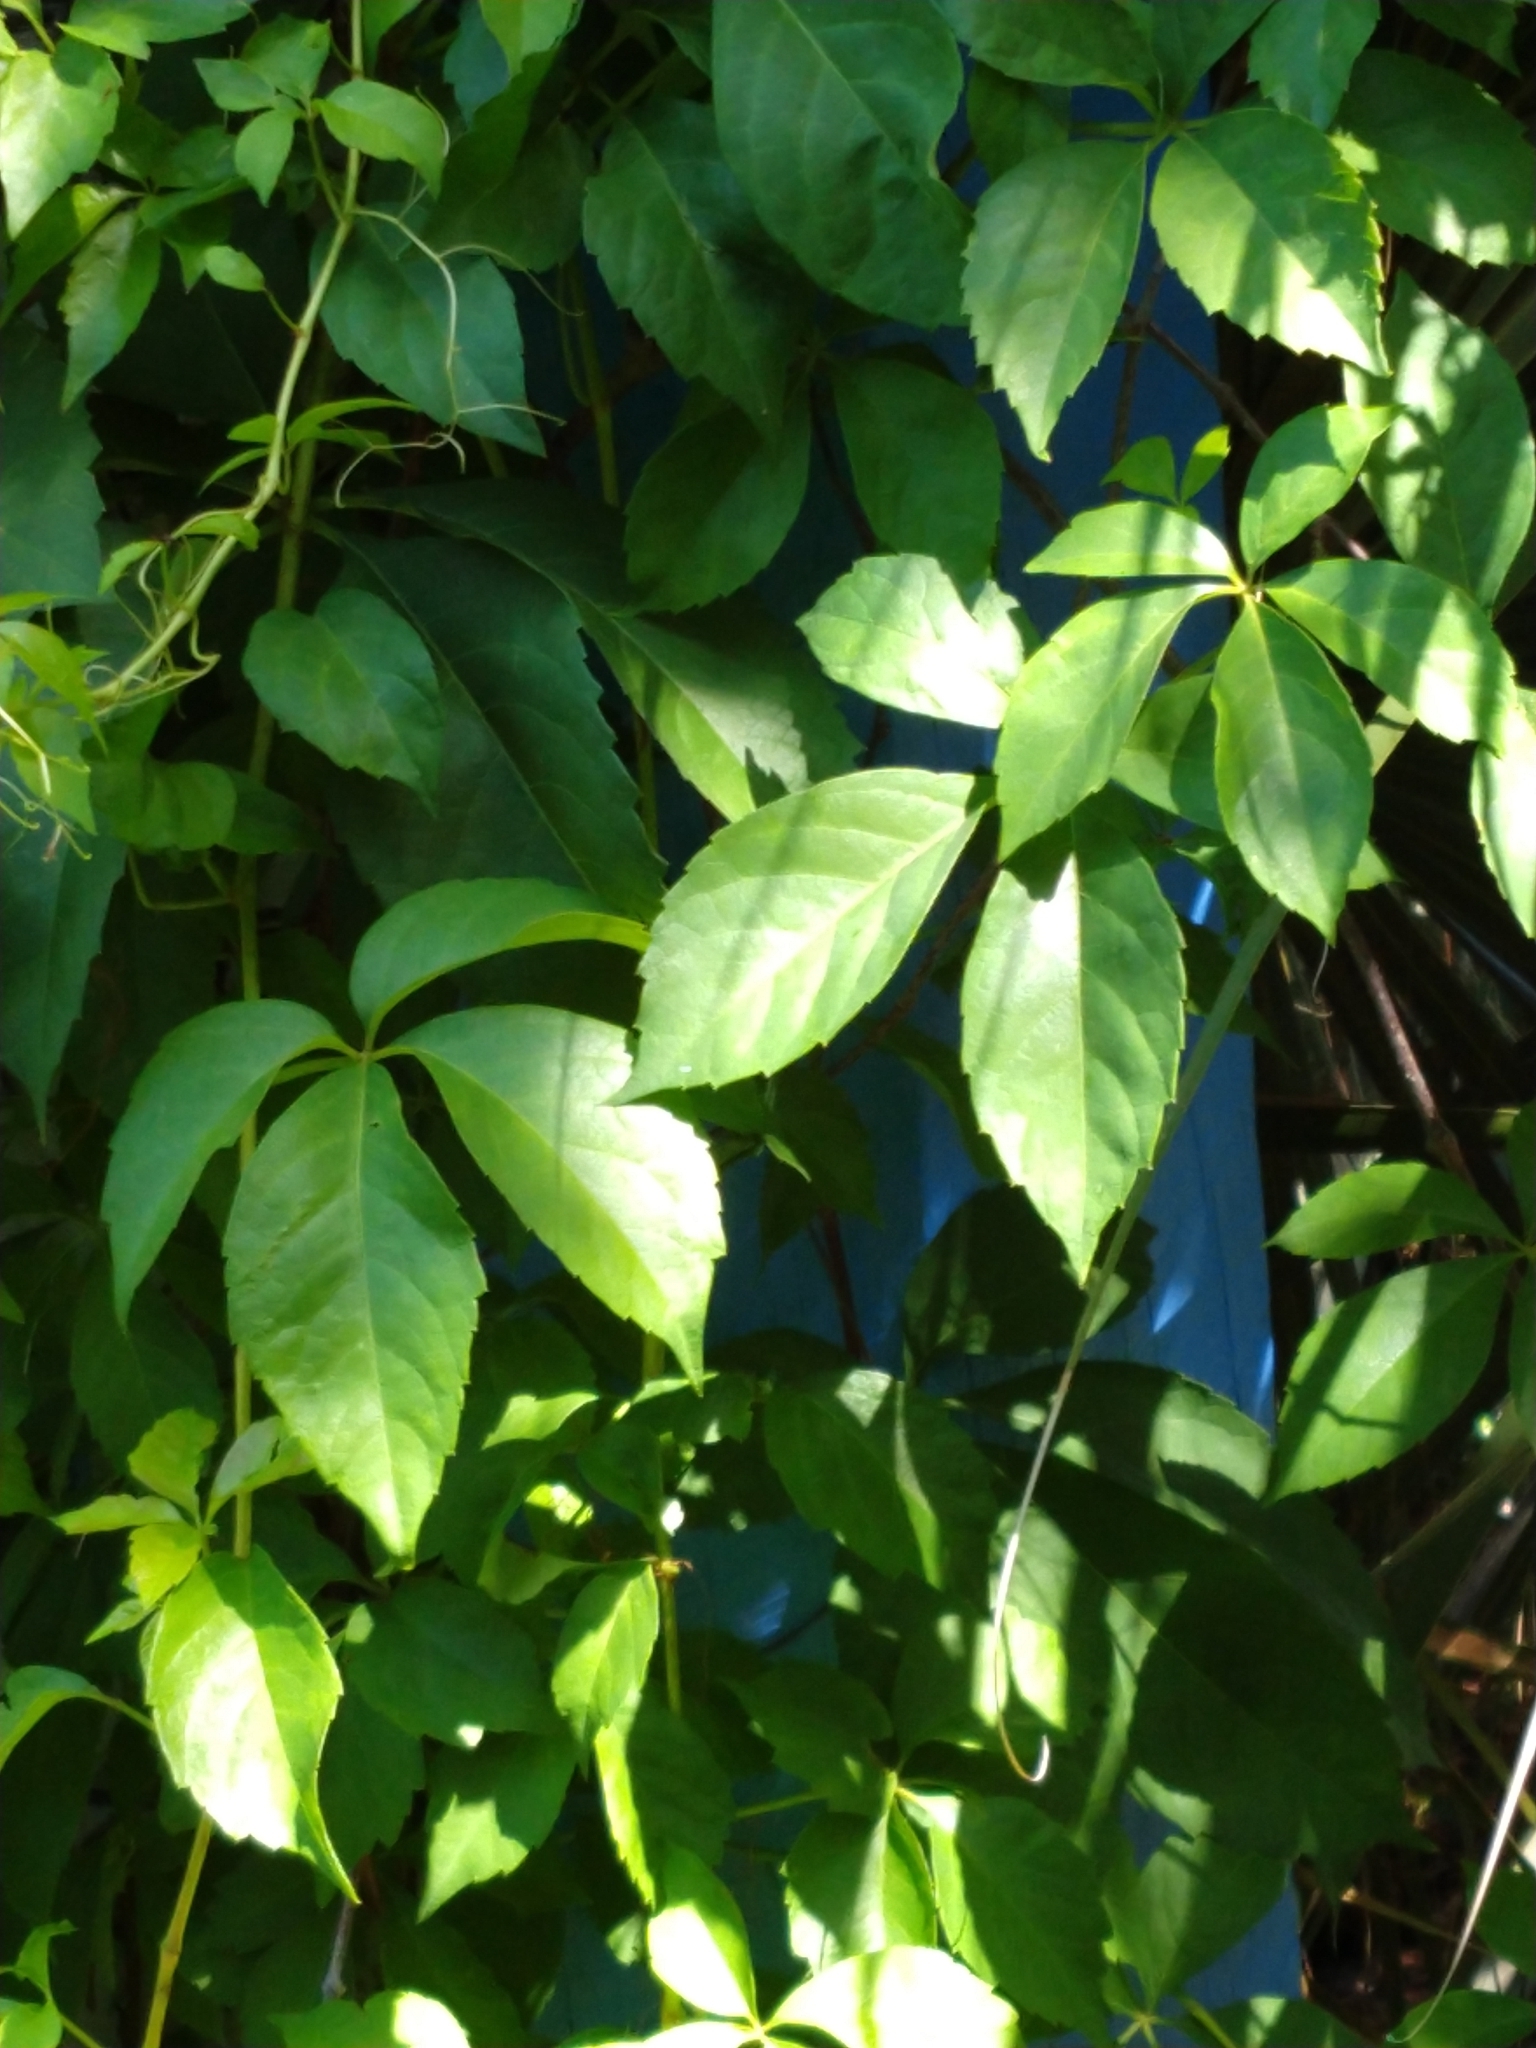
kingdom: Plantae
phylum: Tracheophyta
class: Magnoliopsida
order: Vitales
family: Vitaceae
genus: Parthenocissus
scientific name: Parthenocissus quinquefolia
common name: Virginia-creeper
